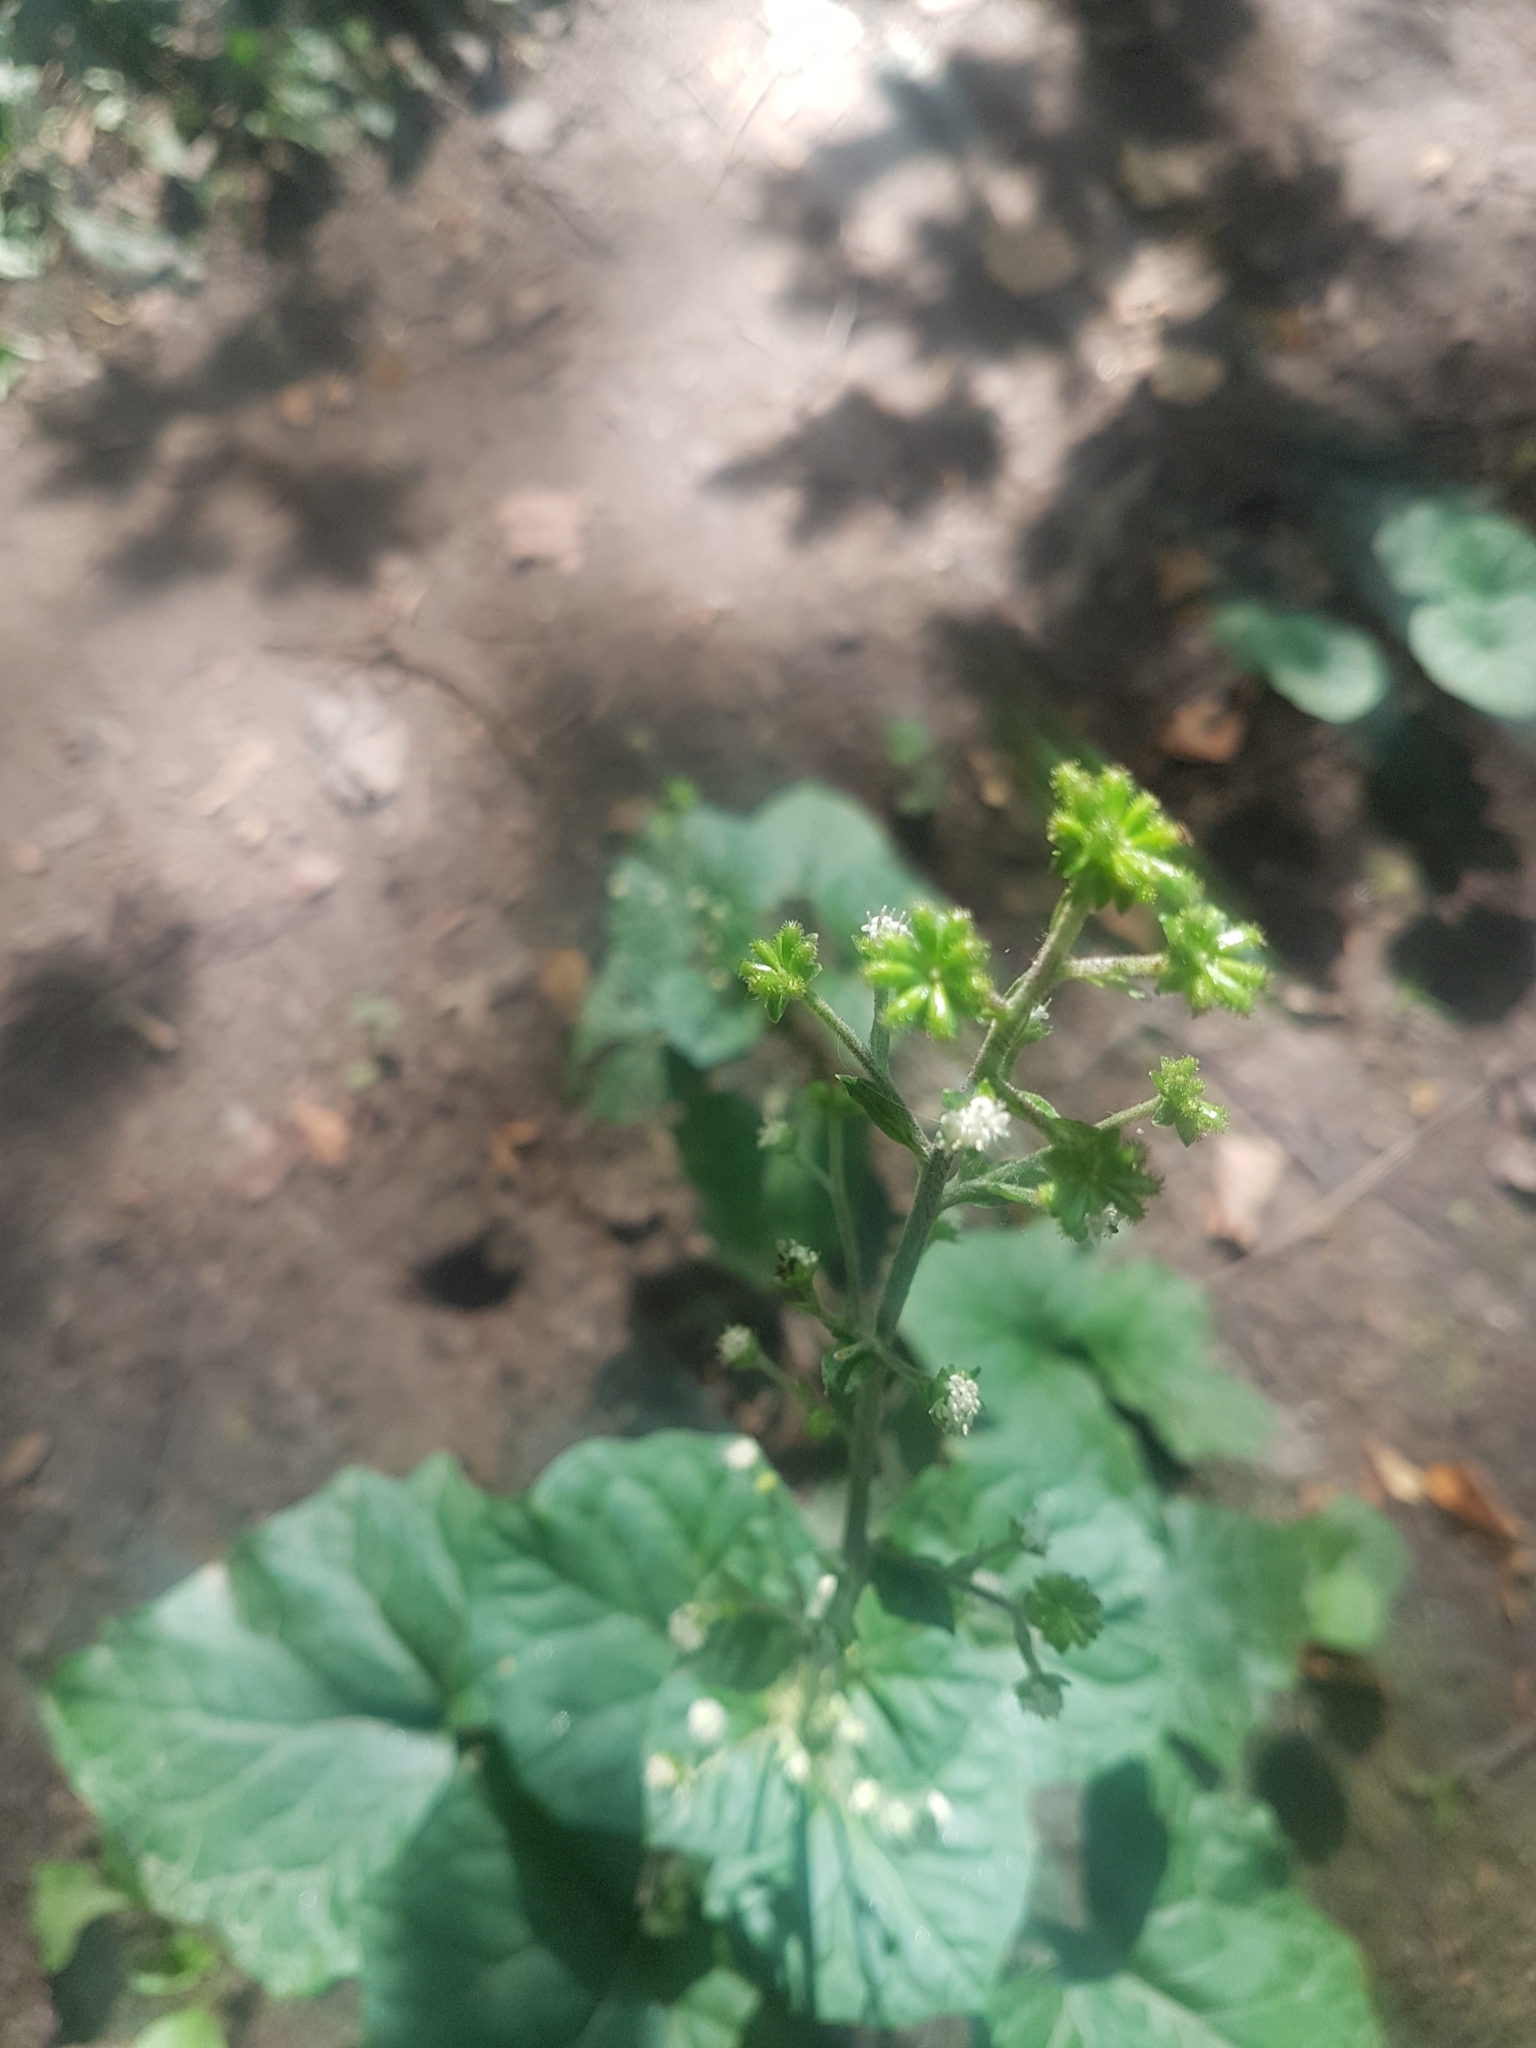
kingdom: Plantae
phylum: Tracheophyta
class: Magnoliopsida
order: Asterales
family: Asteraceae
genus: Adenocaulon
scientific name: Adenocaulon himalaicum
